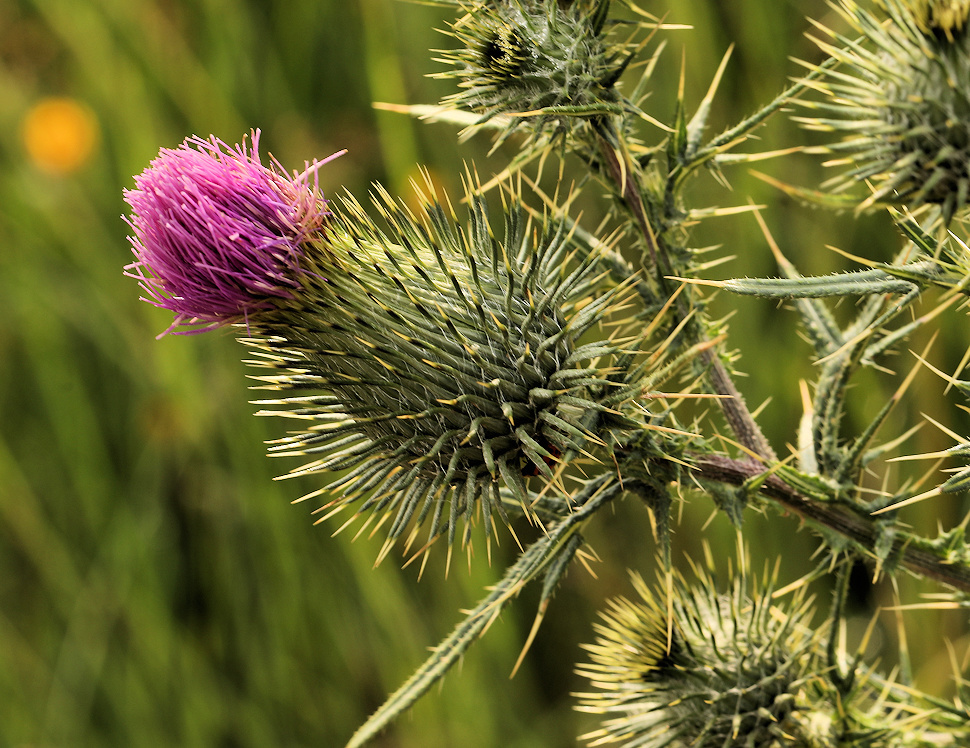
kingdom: Plantae
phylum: Tracheophyta
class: Magnoliopsida
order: Asterales
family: Asteraceae
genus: Cirsium
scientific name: Cirsium vulgare
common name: Bull thistle
